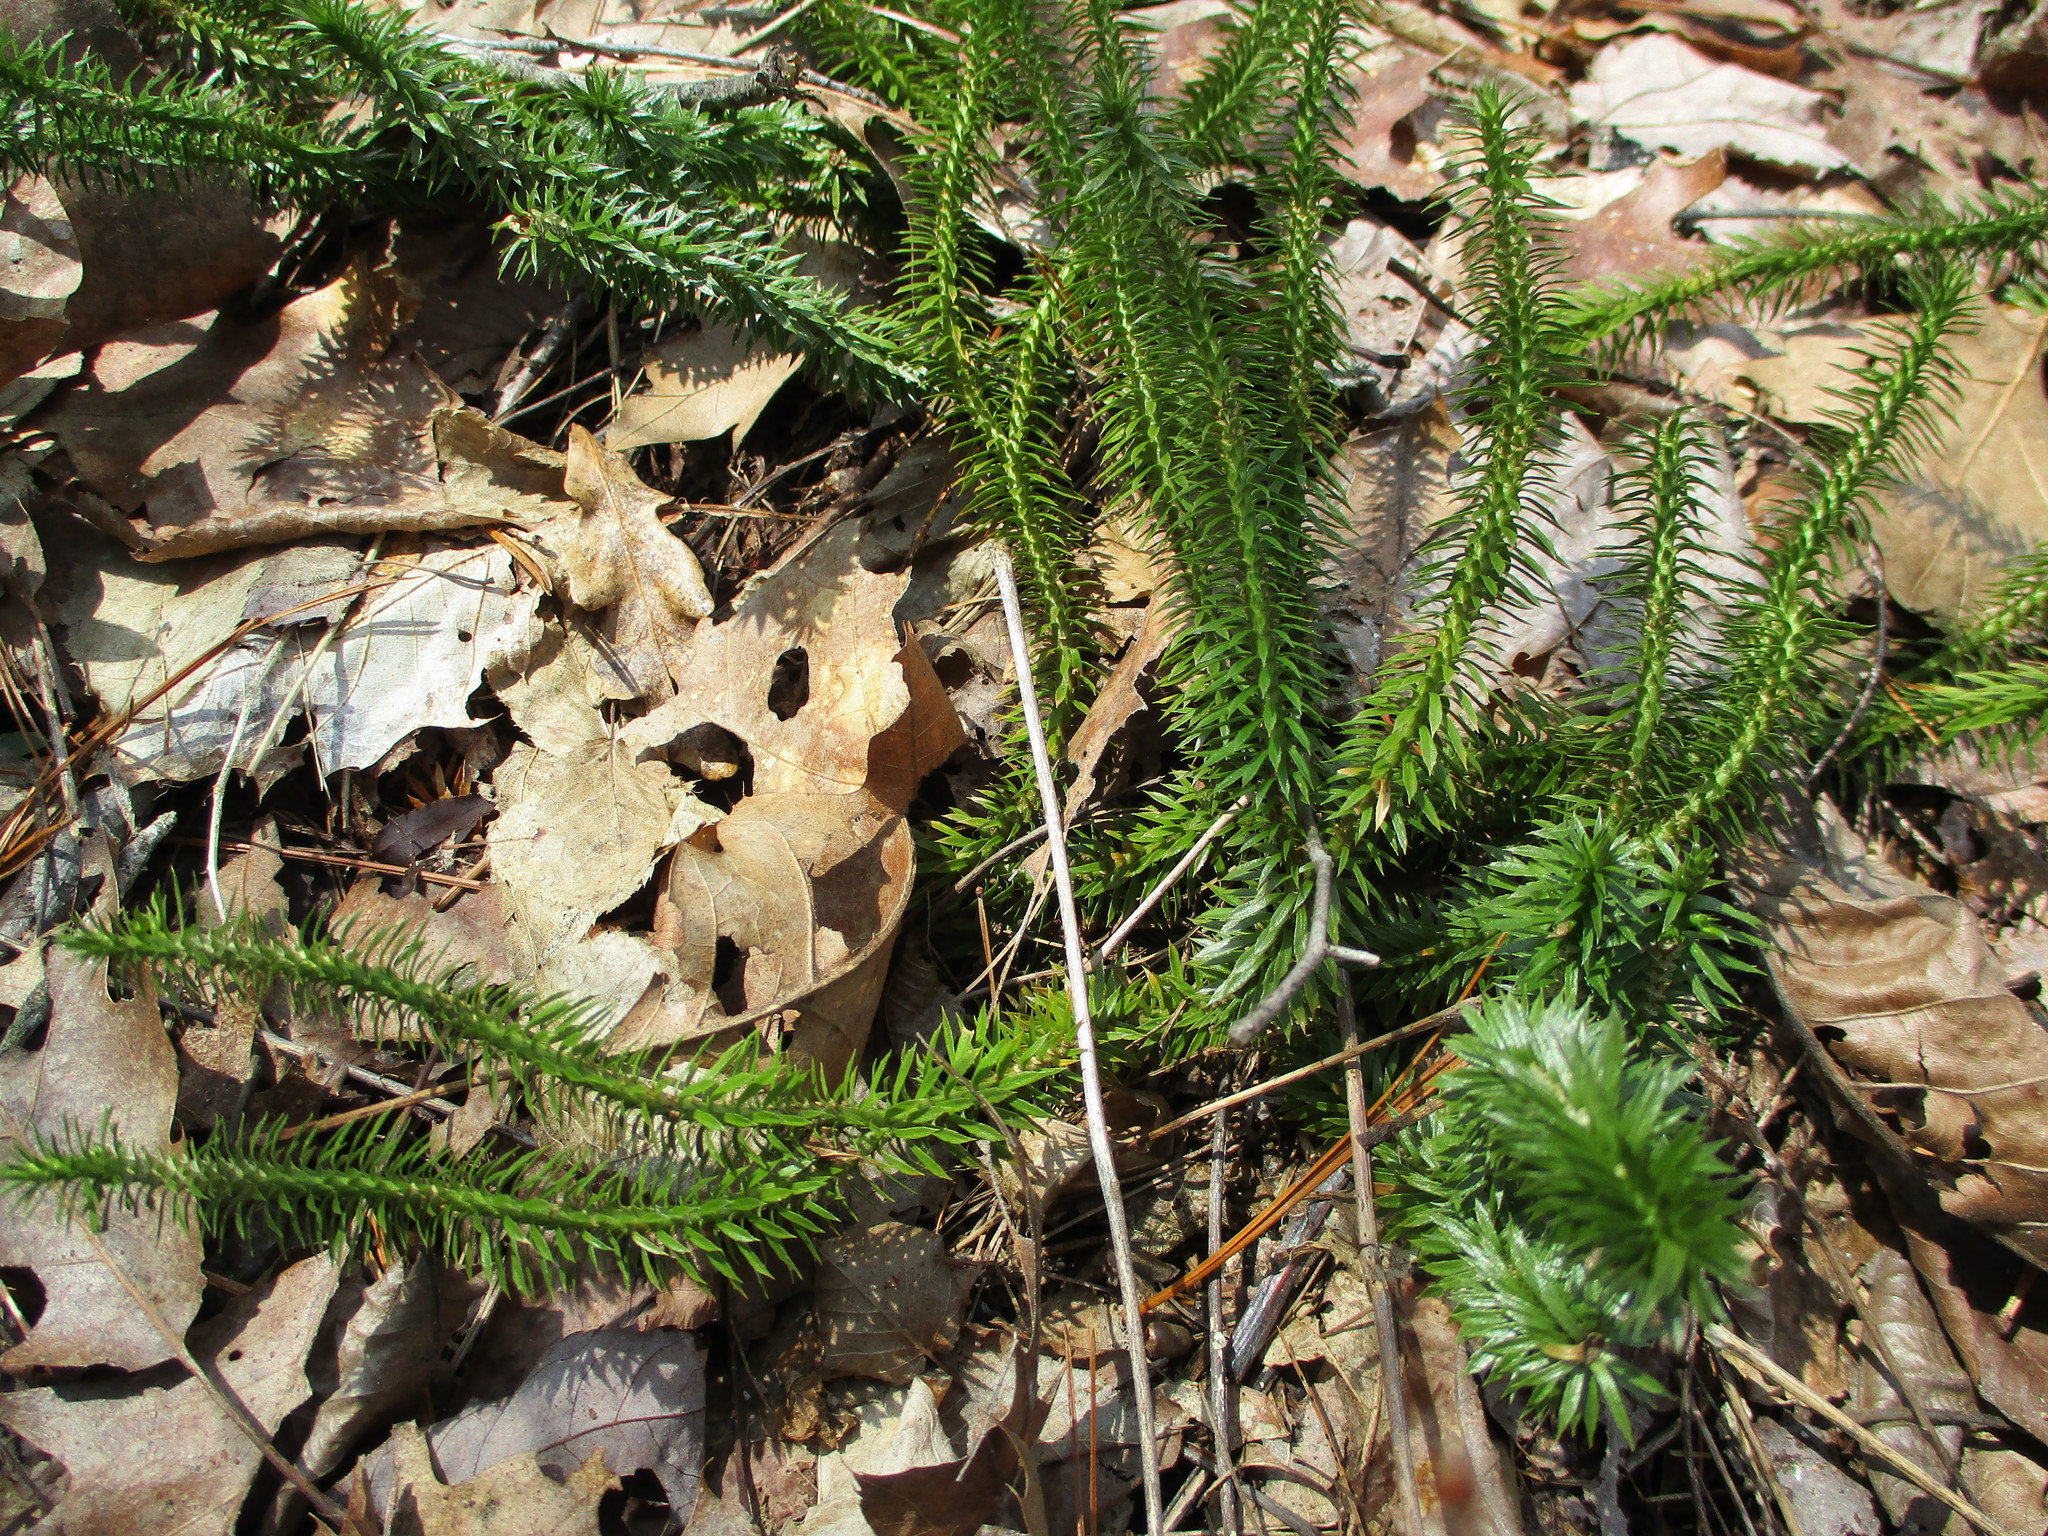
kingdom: Plantae
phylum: Tracheophyta
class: Lycopodiopsida
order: Lycopodiales
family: Lycopodiaceae
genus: Huperzia
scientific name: Huperzia lucidula
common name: Shining clubmoss
